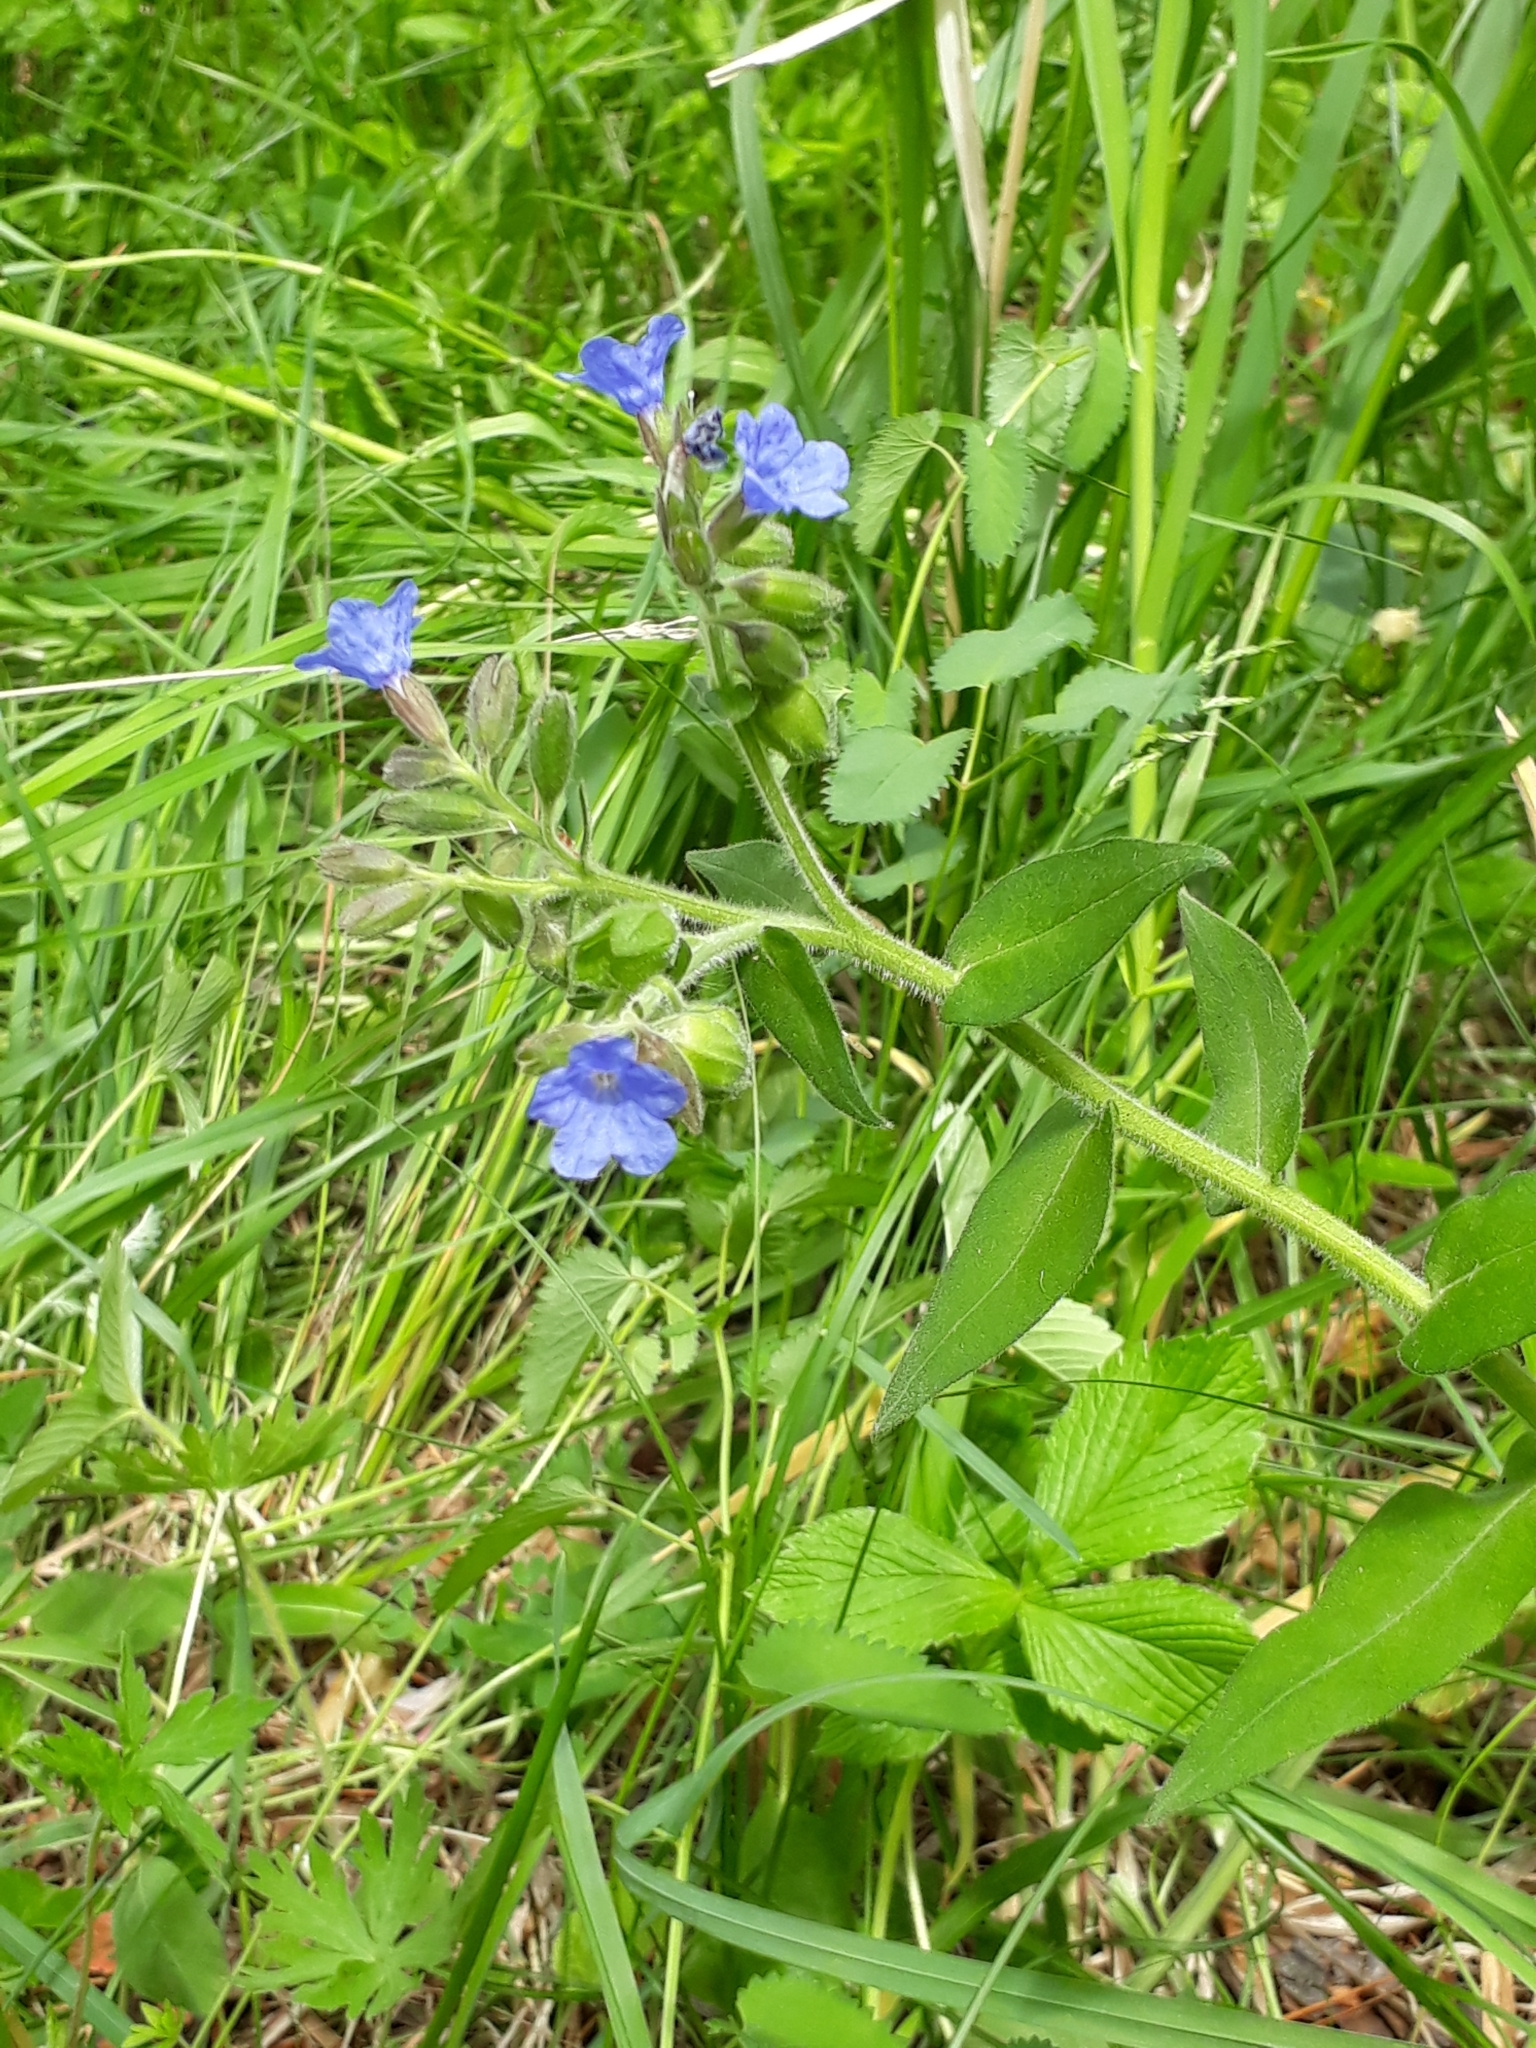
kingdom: Plantae
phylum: Tracheophyta
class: Magnoliopsida
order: Boraginales
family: Boraginaceae
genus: Pulmonaria
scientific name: Pulmonaria mollis
